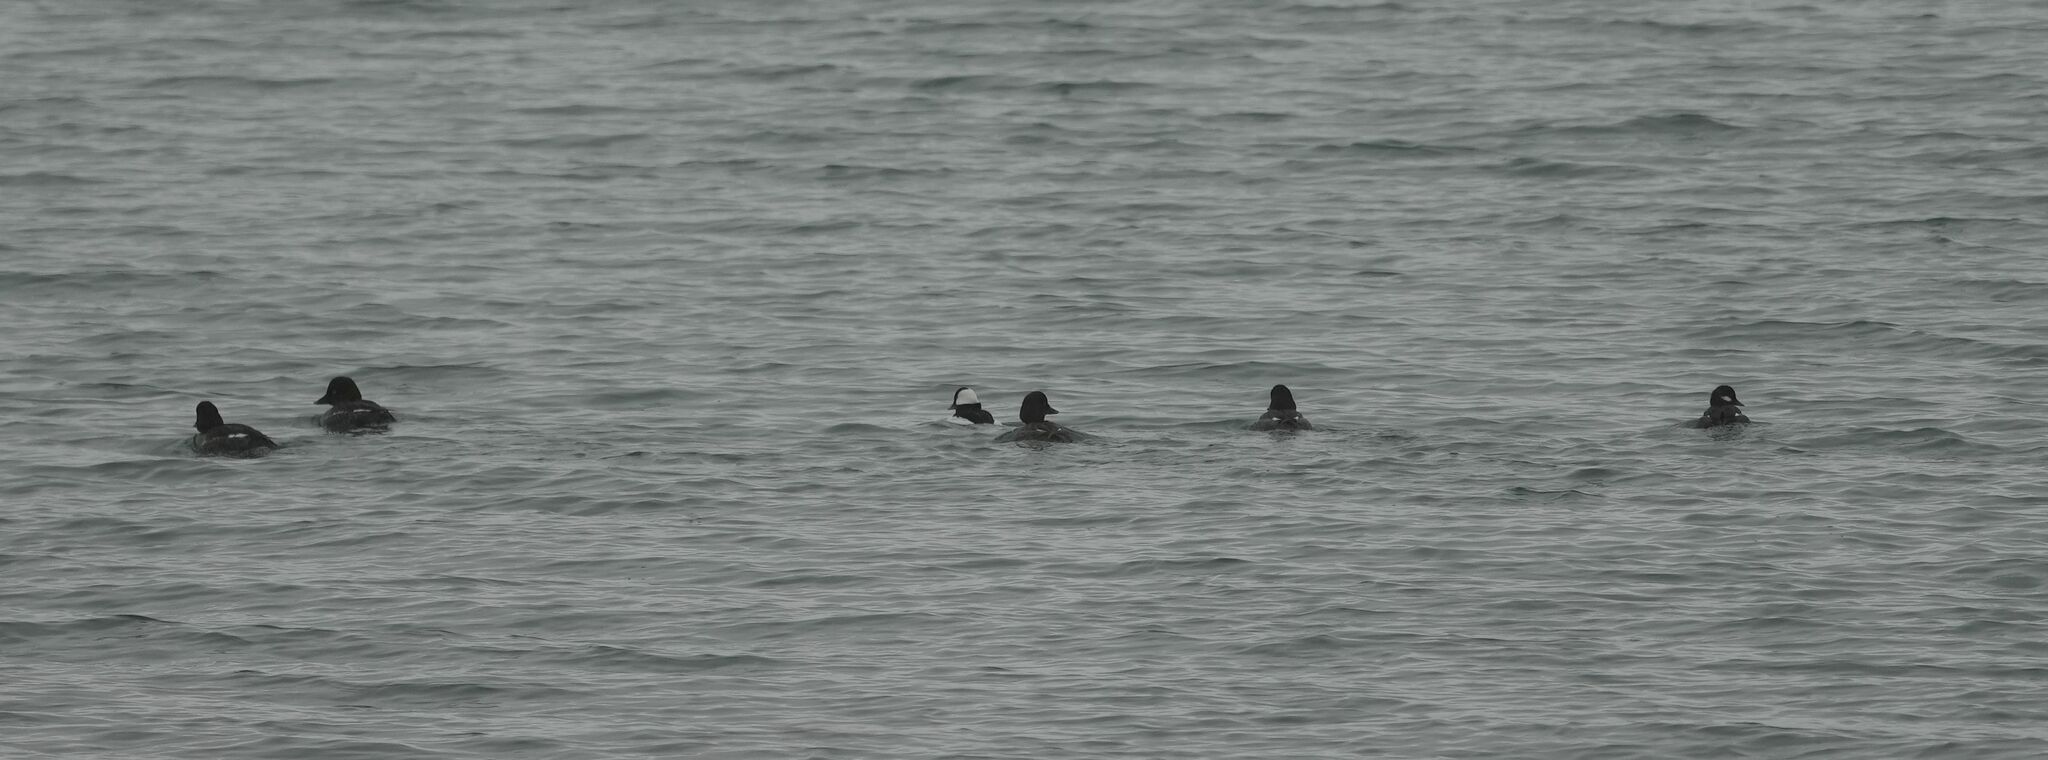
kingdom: Animalia
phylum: Chordata
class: Aves
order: Anseriformes
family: Anatidae
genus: Bucephala
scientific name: Bucephala albeola
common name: Bufflehead
